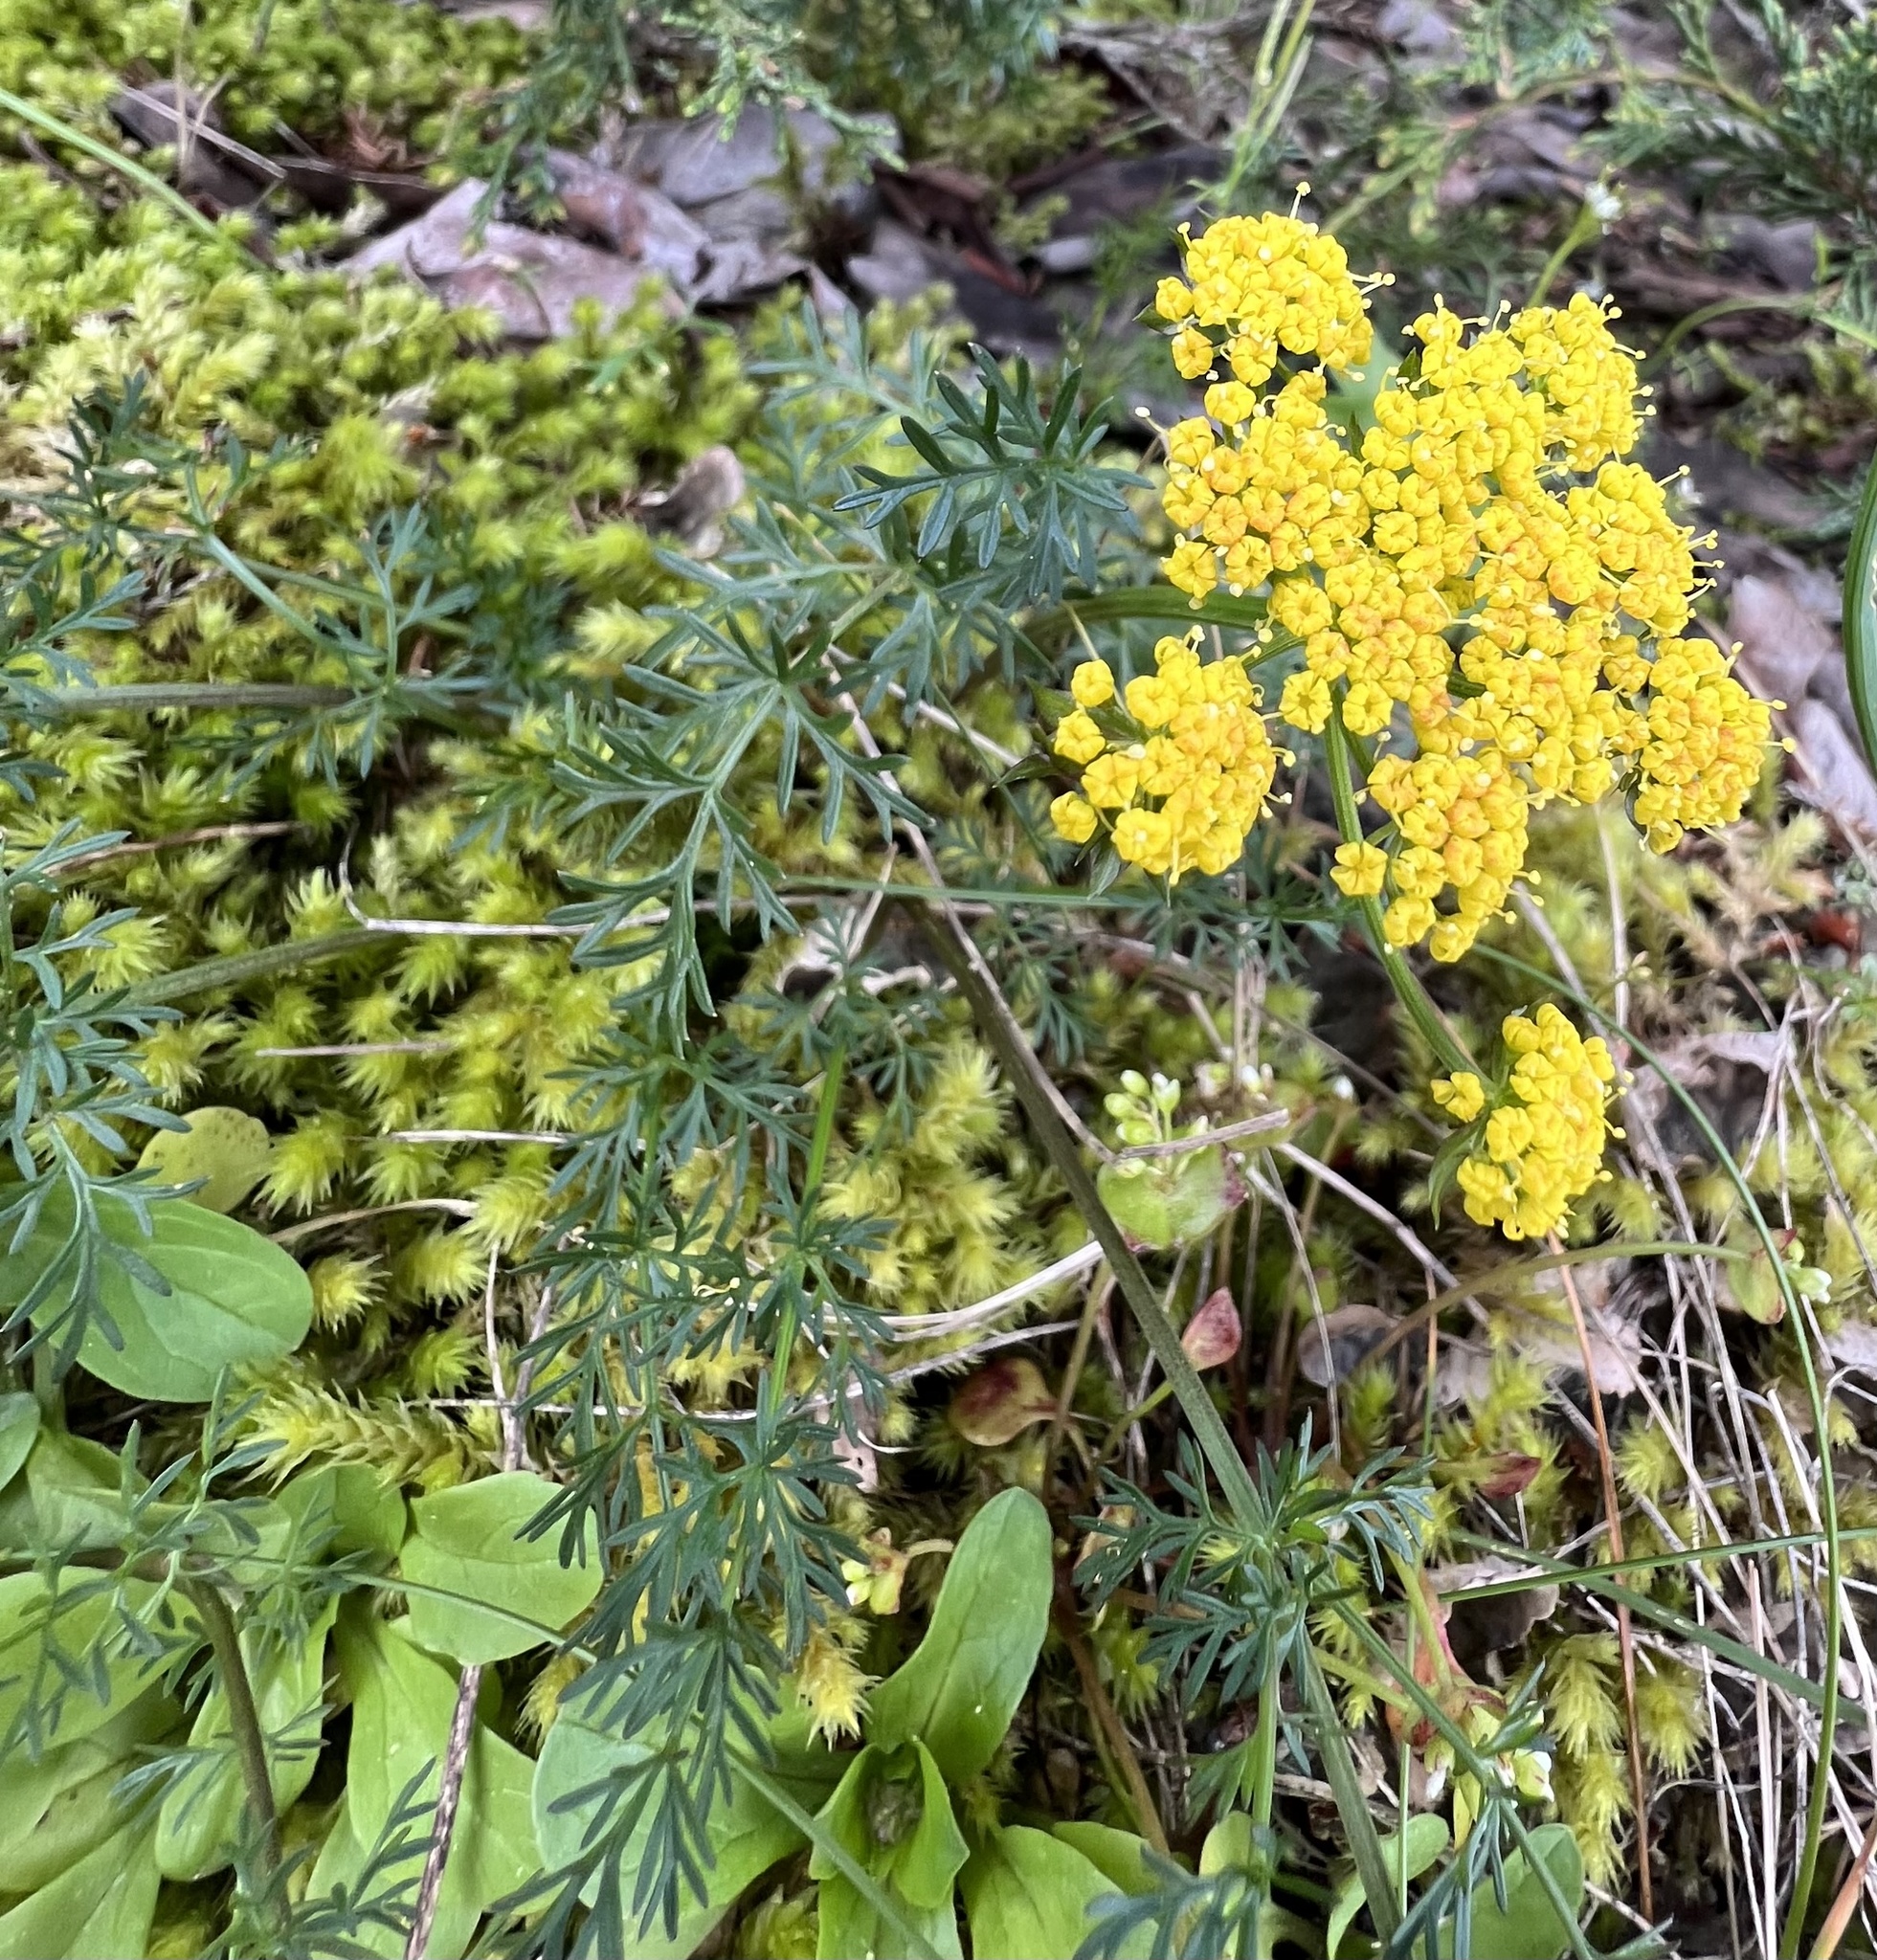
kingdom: Plantae
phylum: Tracheophyta
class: Magnoliopsida
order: Apiales
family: Apiaceae
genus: Lomatium
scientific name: Lomatium utriculatum
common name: Fine-leaf desert-parsley
